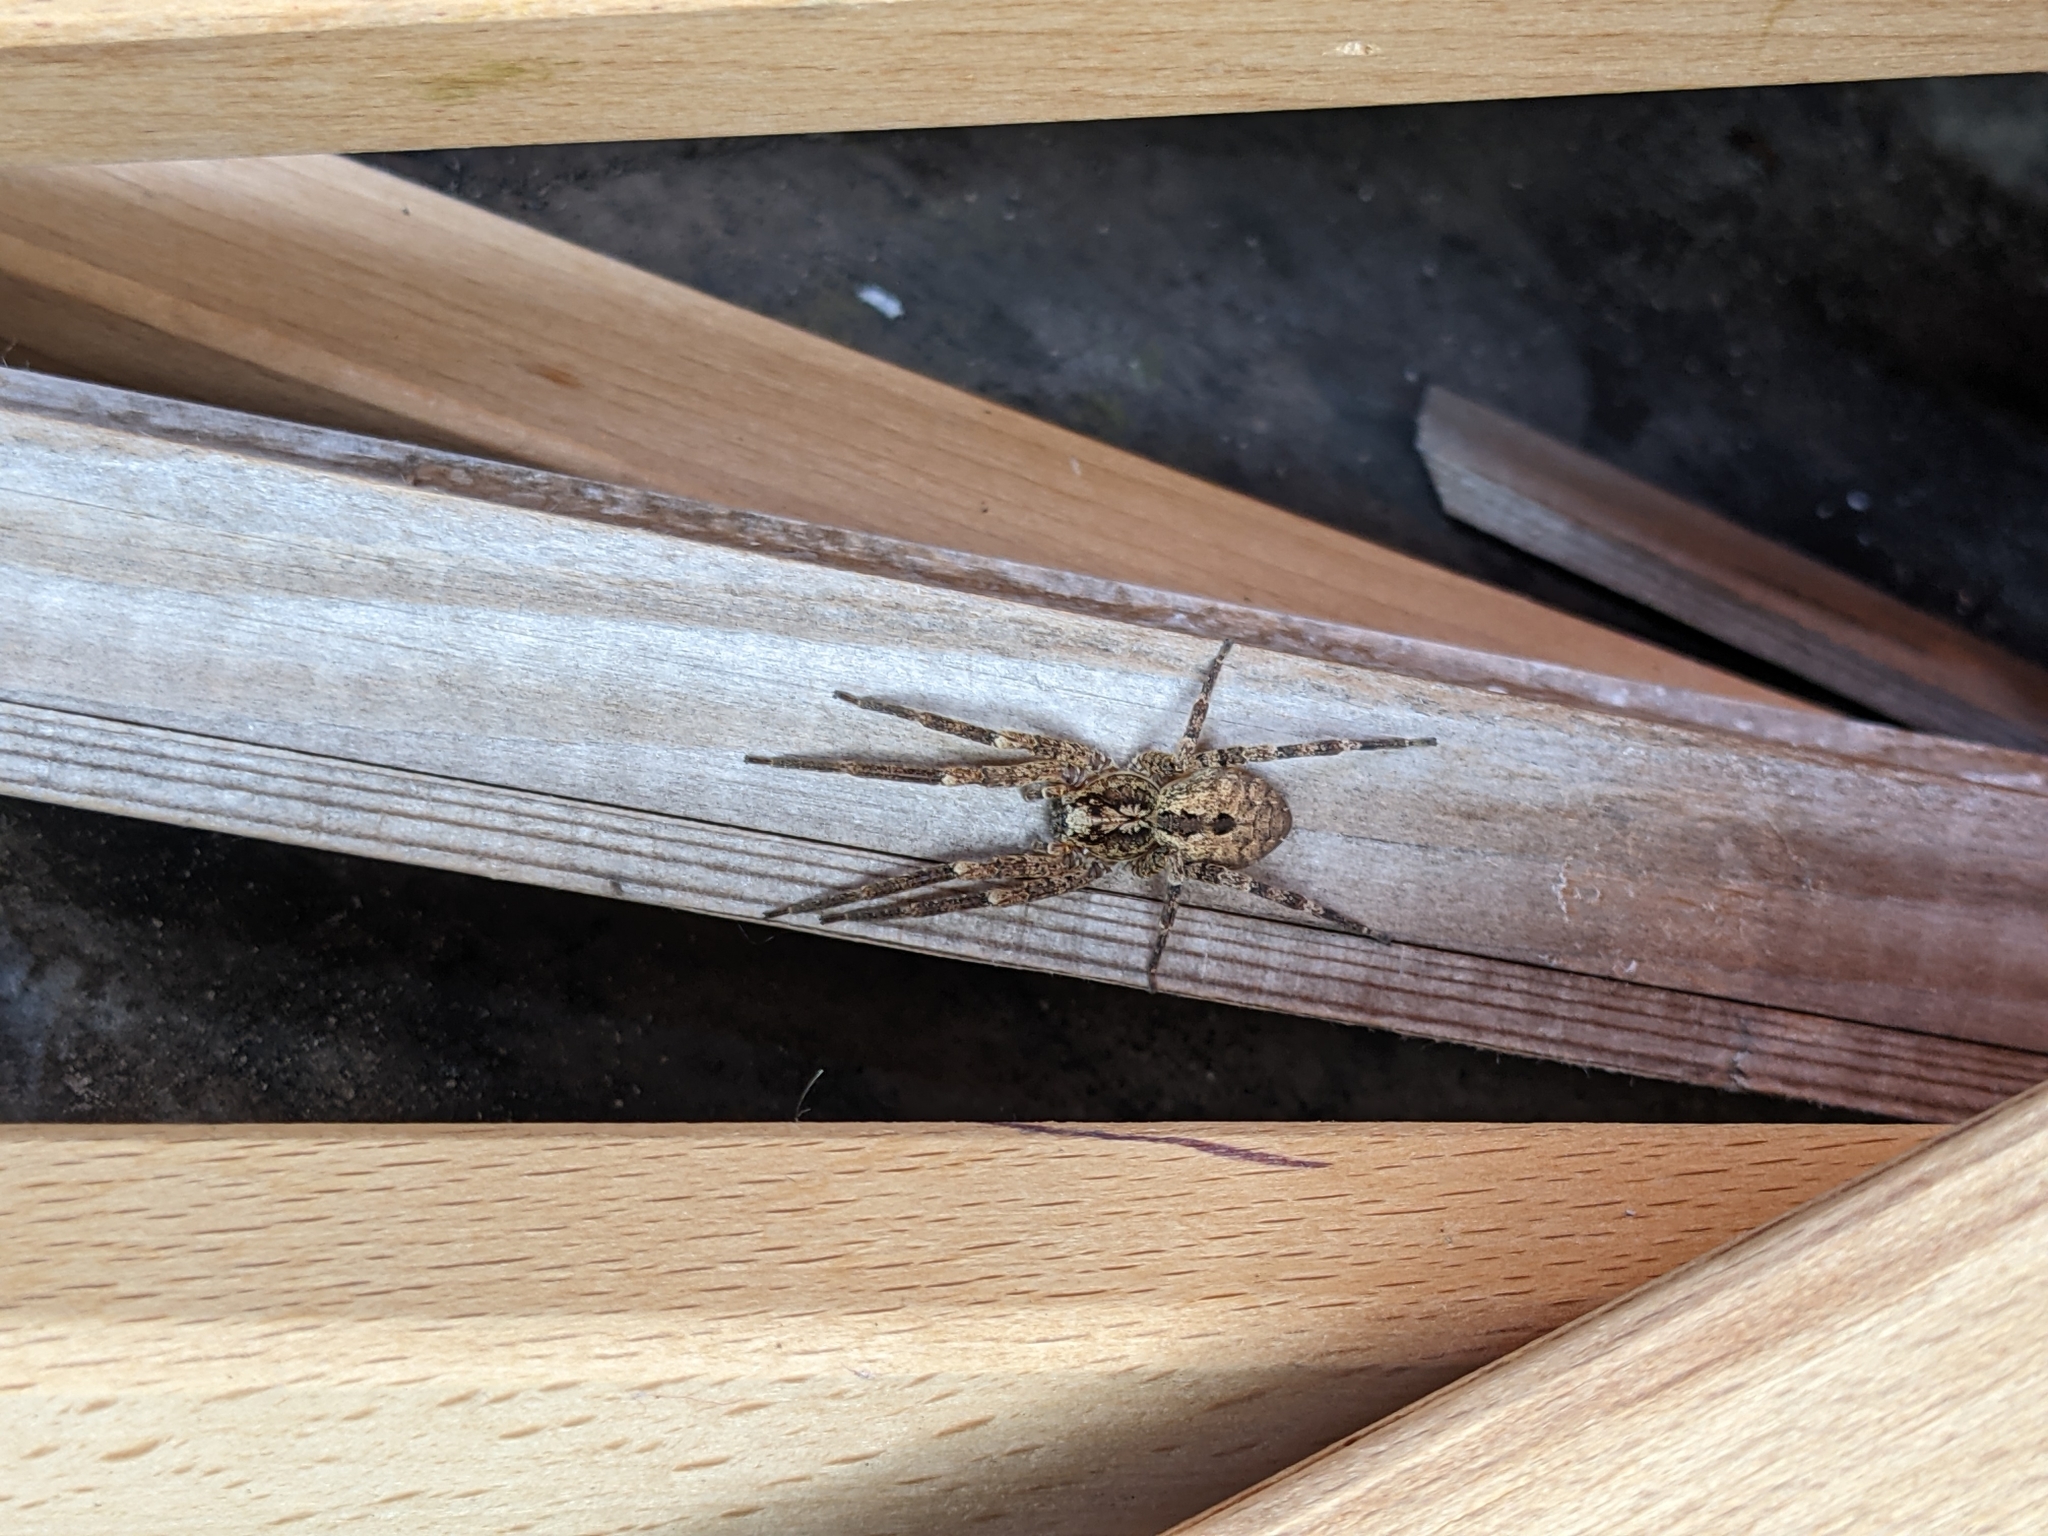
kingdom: Animalia
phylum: Arthropoda
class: Arachnida
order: Araneae
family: Zoropsidae
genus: Zoropsis
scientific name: Zoropsis spinimana
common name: Zoropsid spider
